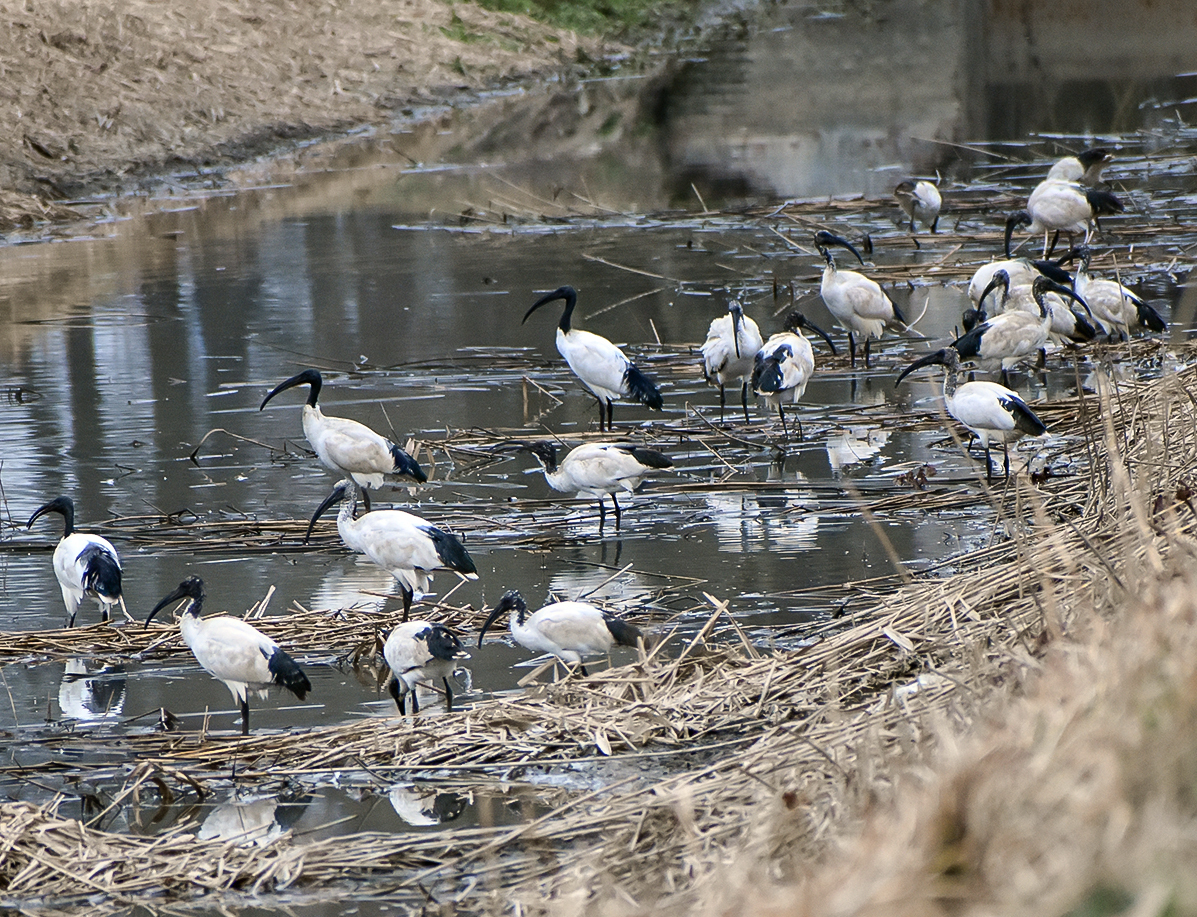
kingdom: Animalia
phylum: Chordata
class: Aves
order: Pelecaniformes
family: Threskiornithidae
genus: Threskiornis
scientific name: Threskiornis aethiopicus
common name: Sacred ibis
